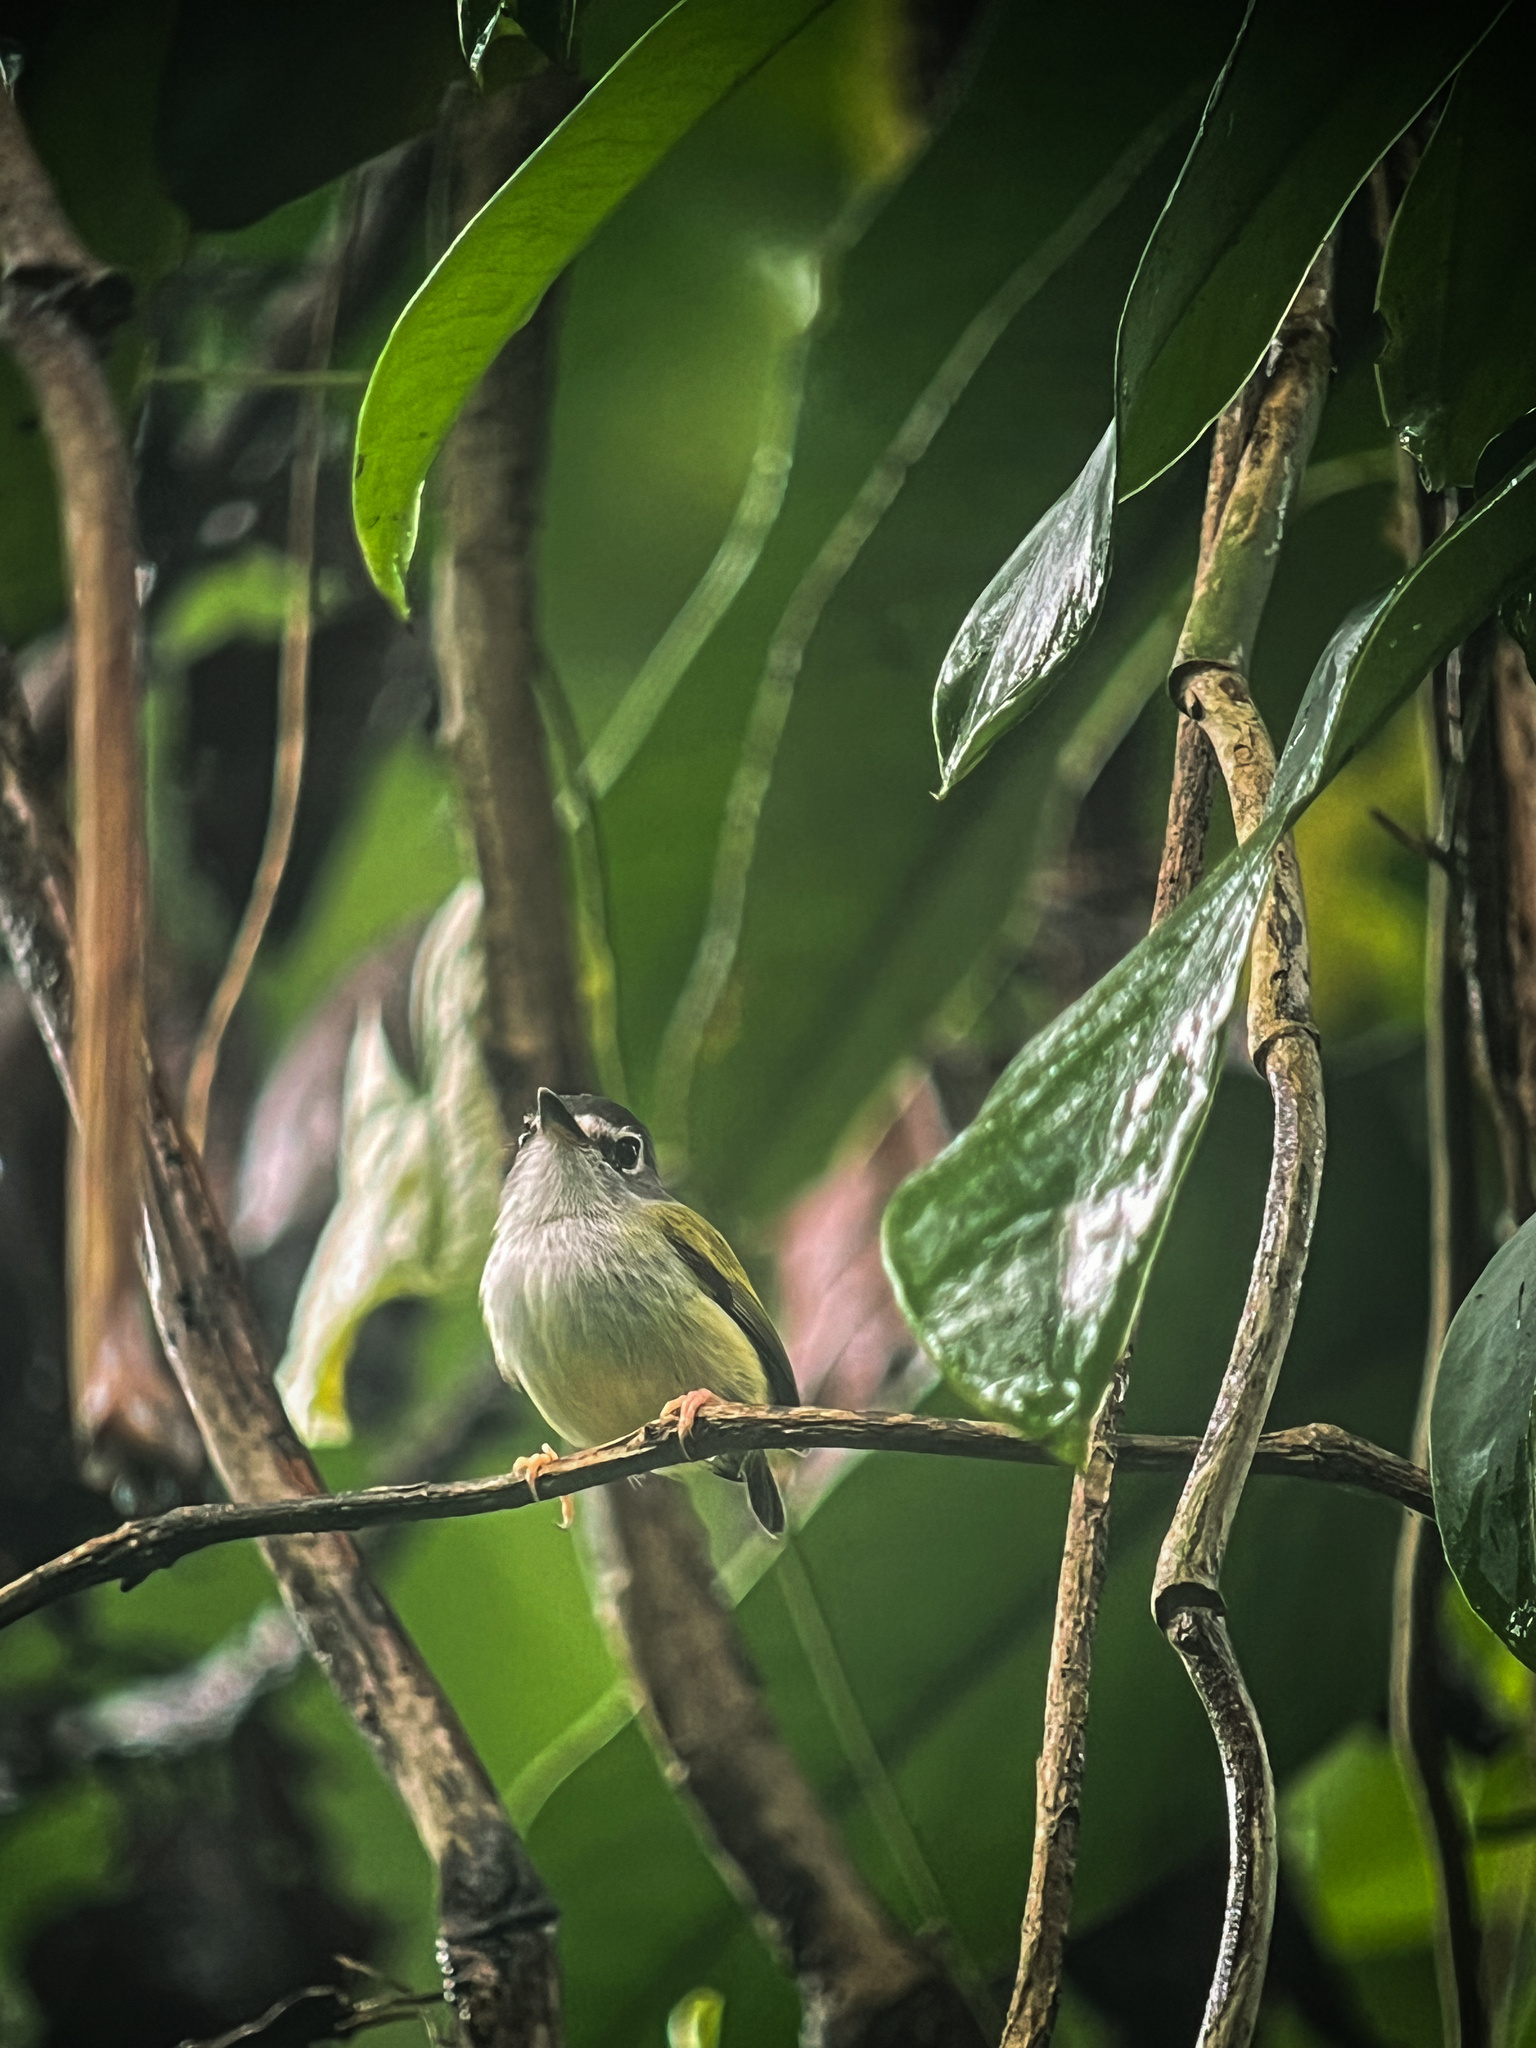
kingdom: Animalia
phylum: Chordata
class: Aves
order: Passeriformes
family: Tyrannidae
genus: Myiornis
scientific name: Myiornis atricapillus
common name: Black-capped pygmy-tyrant
